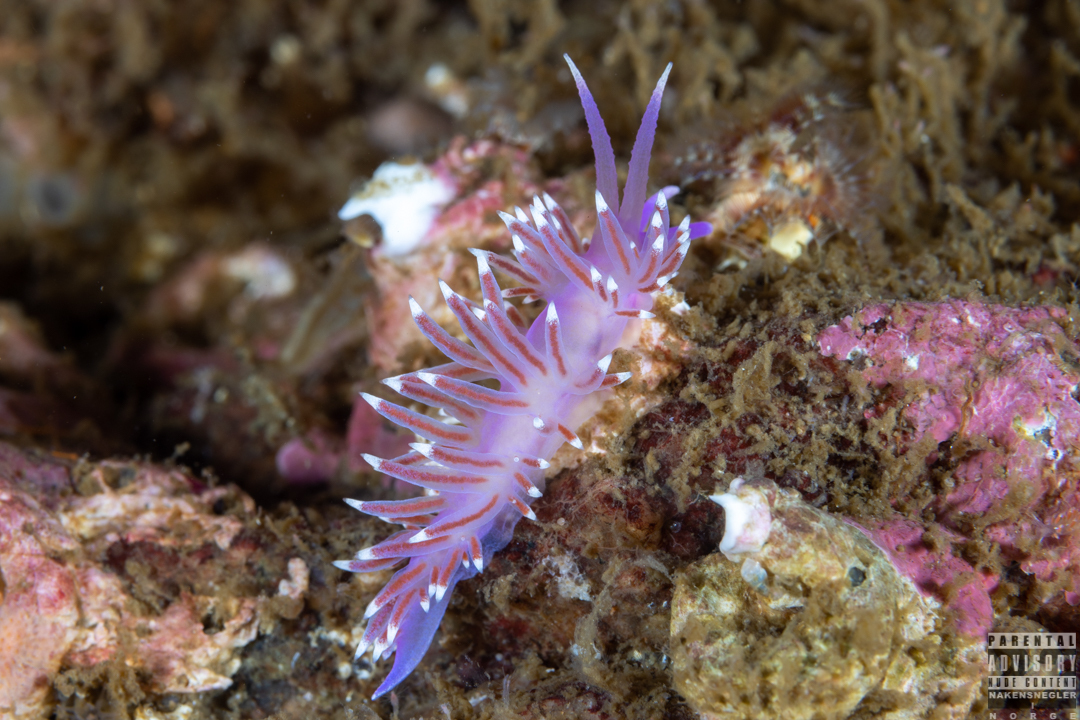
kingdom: Animalia
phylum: Mollusca
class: Gastropoda
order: Nudibranchia
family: Flabellinidae
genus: Edmundsella
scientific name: Edmundsella pedata
